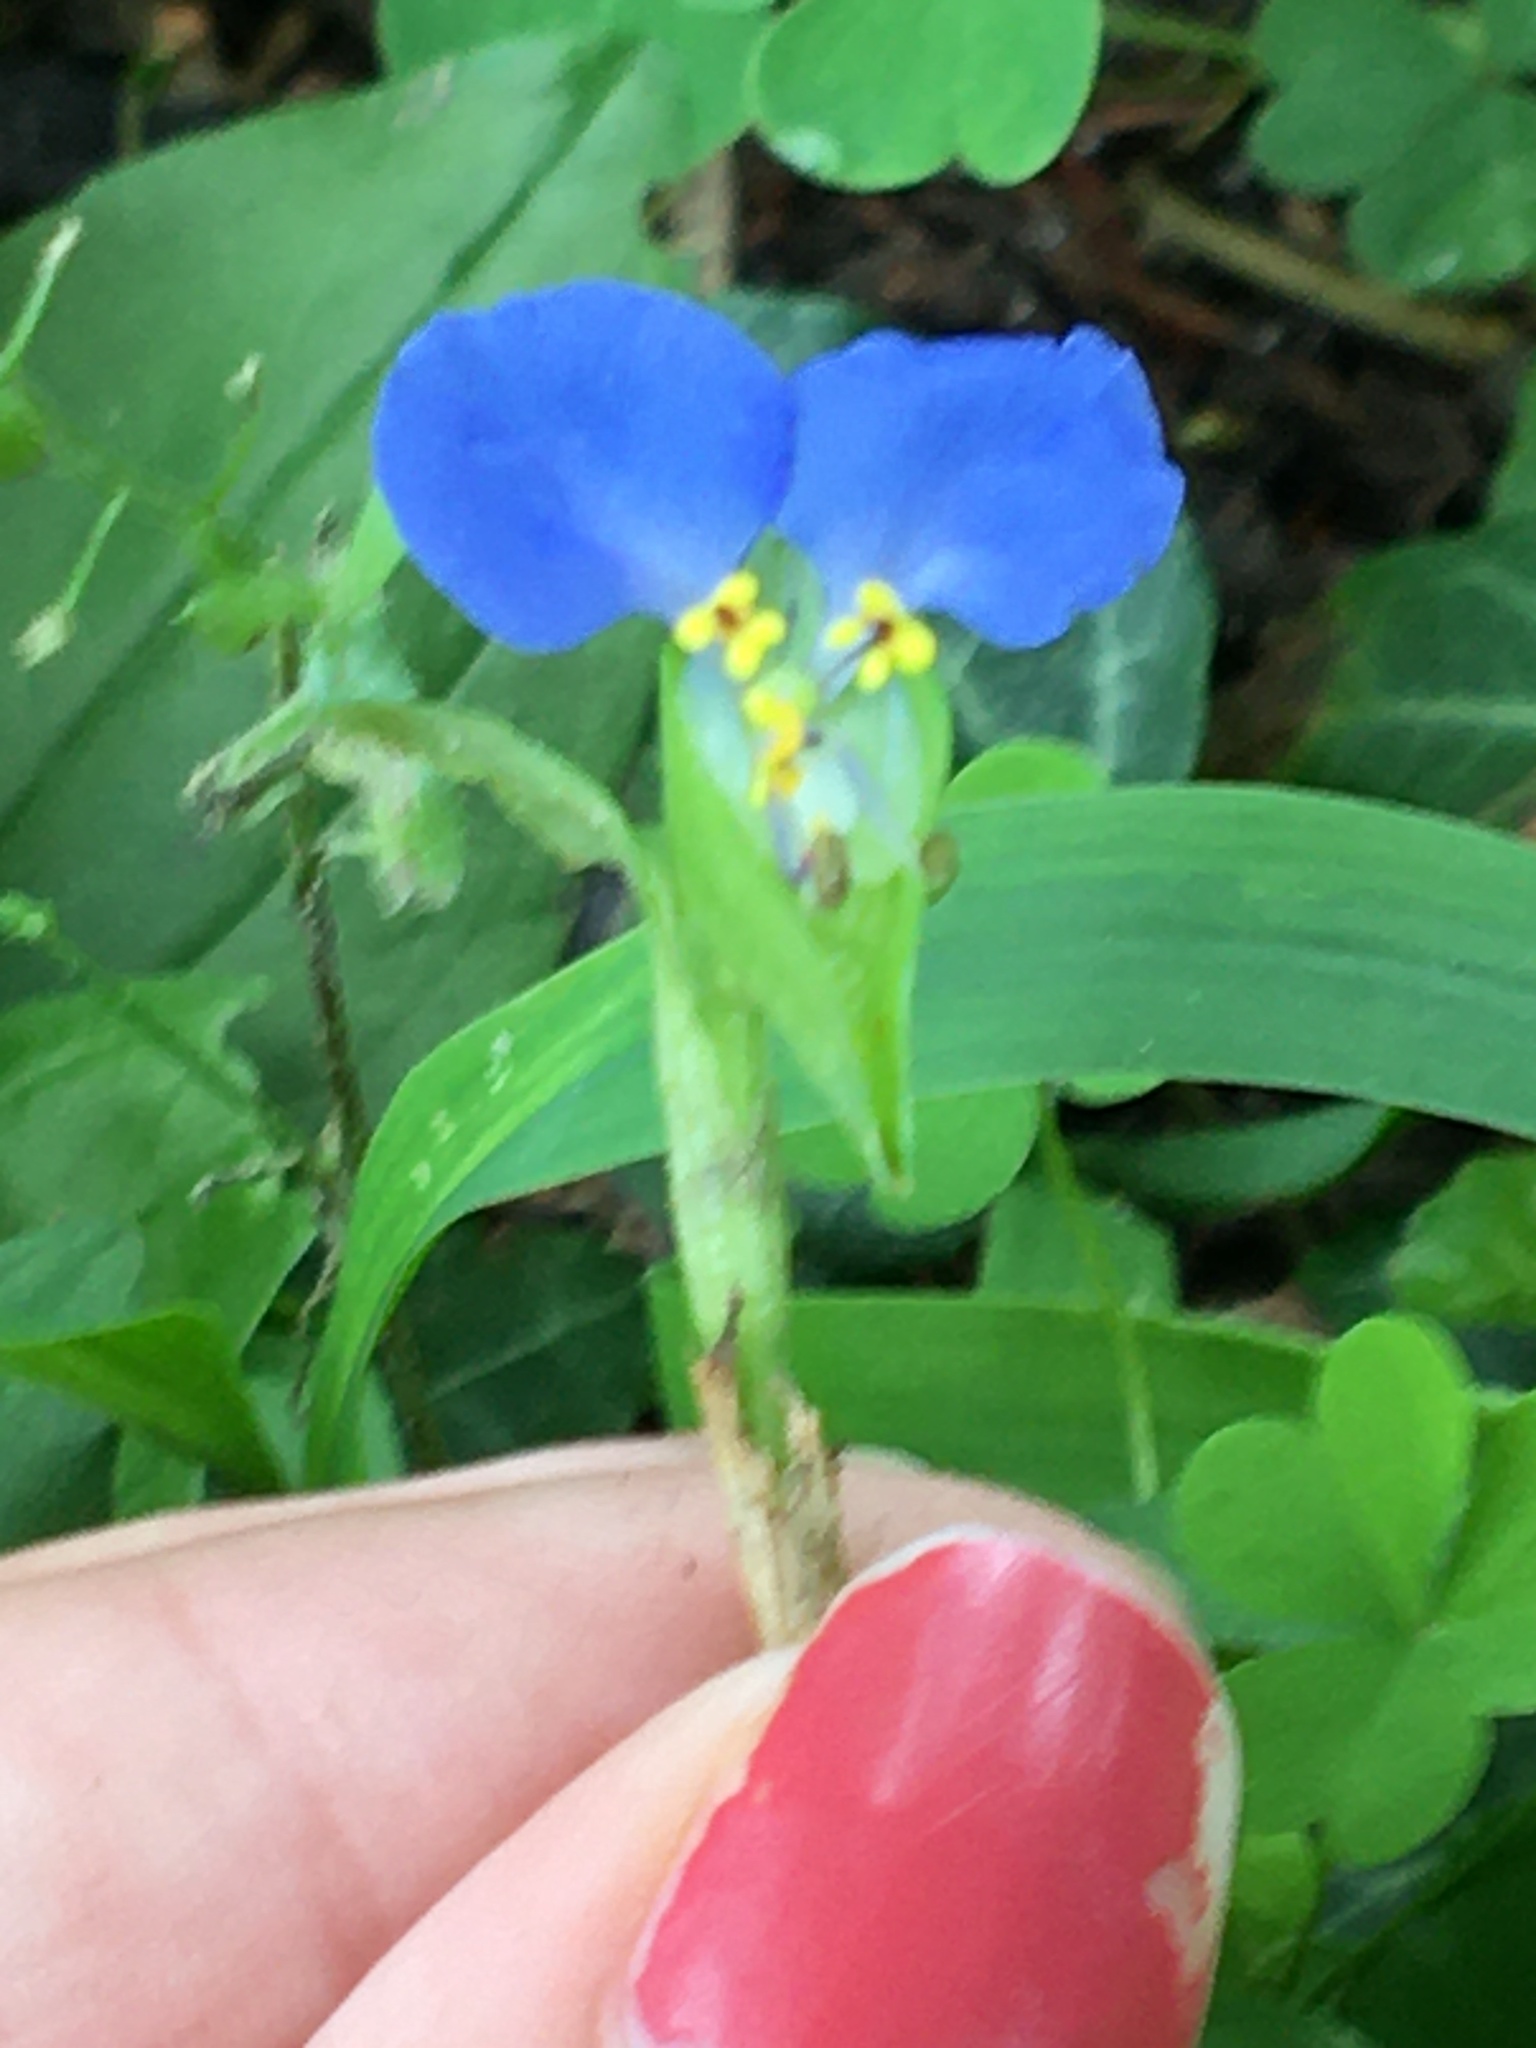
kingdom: Plantae
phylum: Tracheophyta
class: Liliopsida
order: Commelinales
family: Commelinaceae
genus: Commelina
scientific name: Commelina communis
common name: Asiatic dayflower
